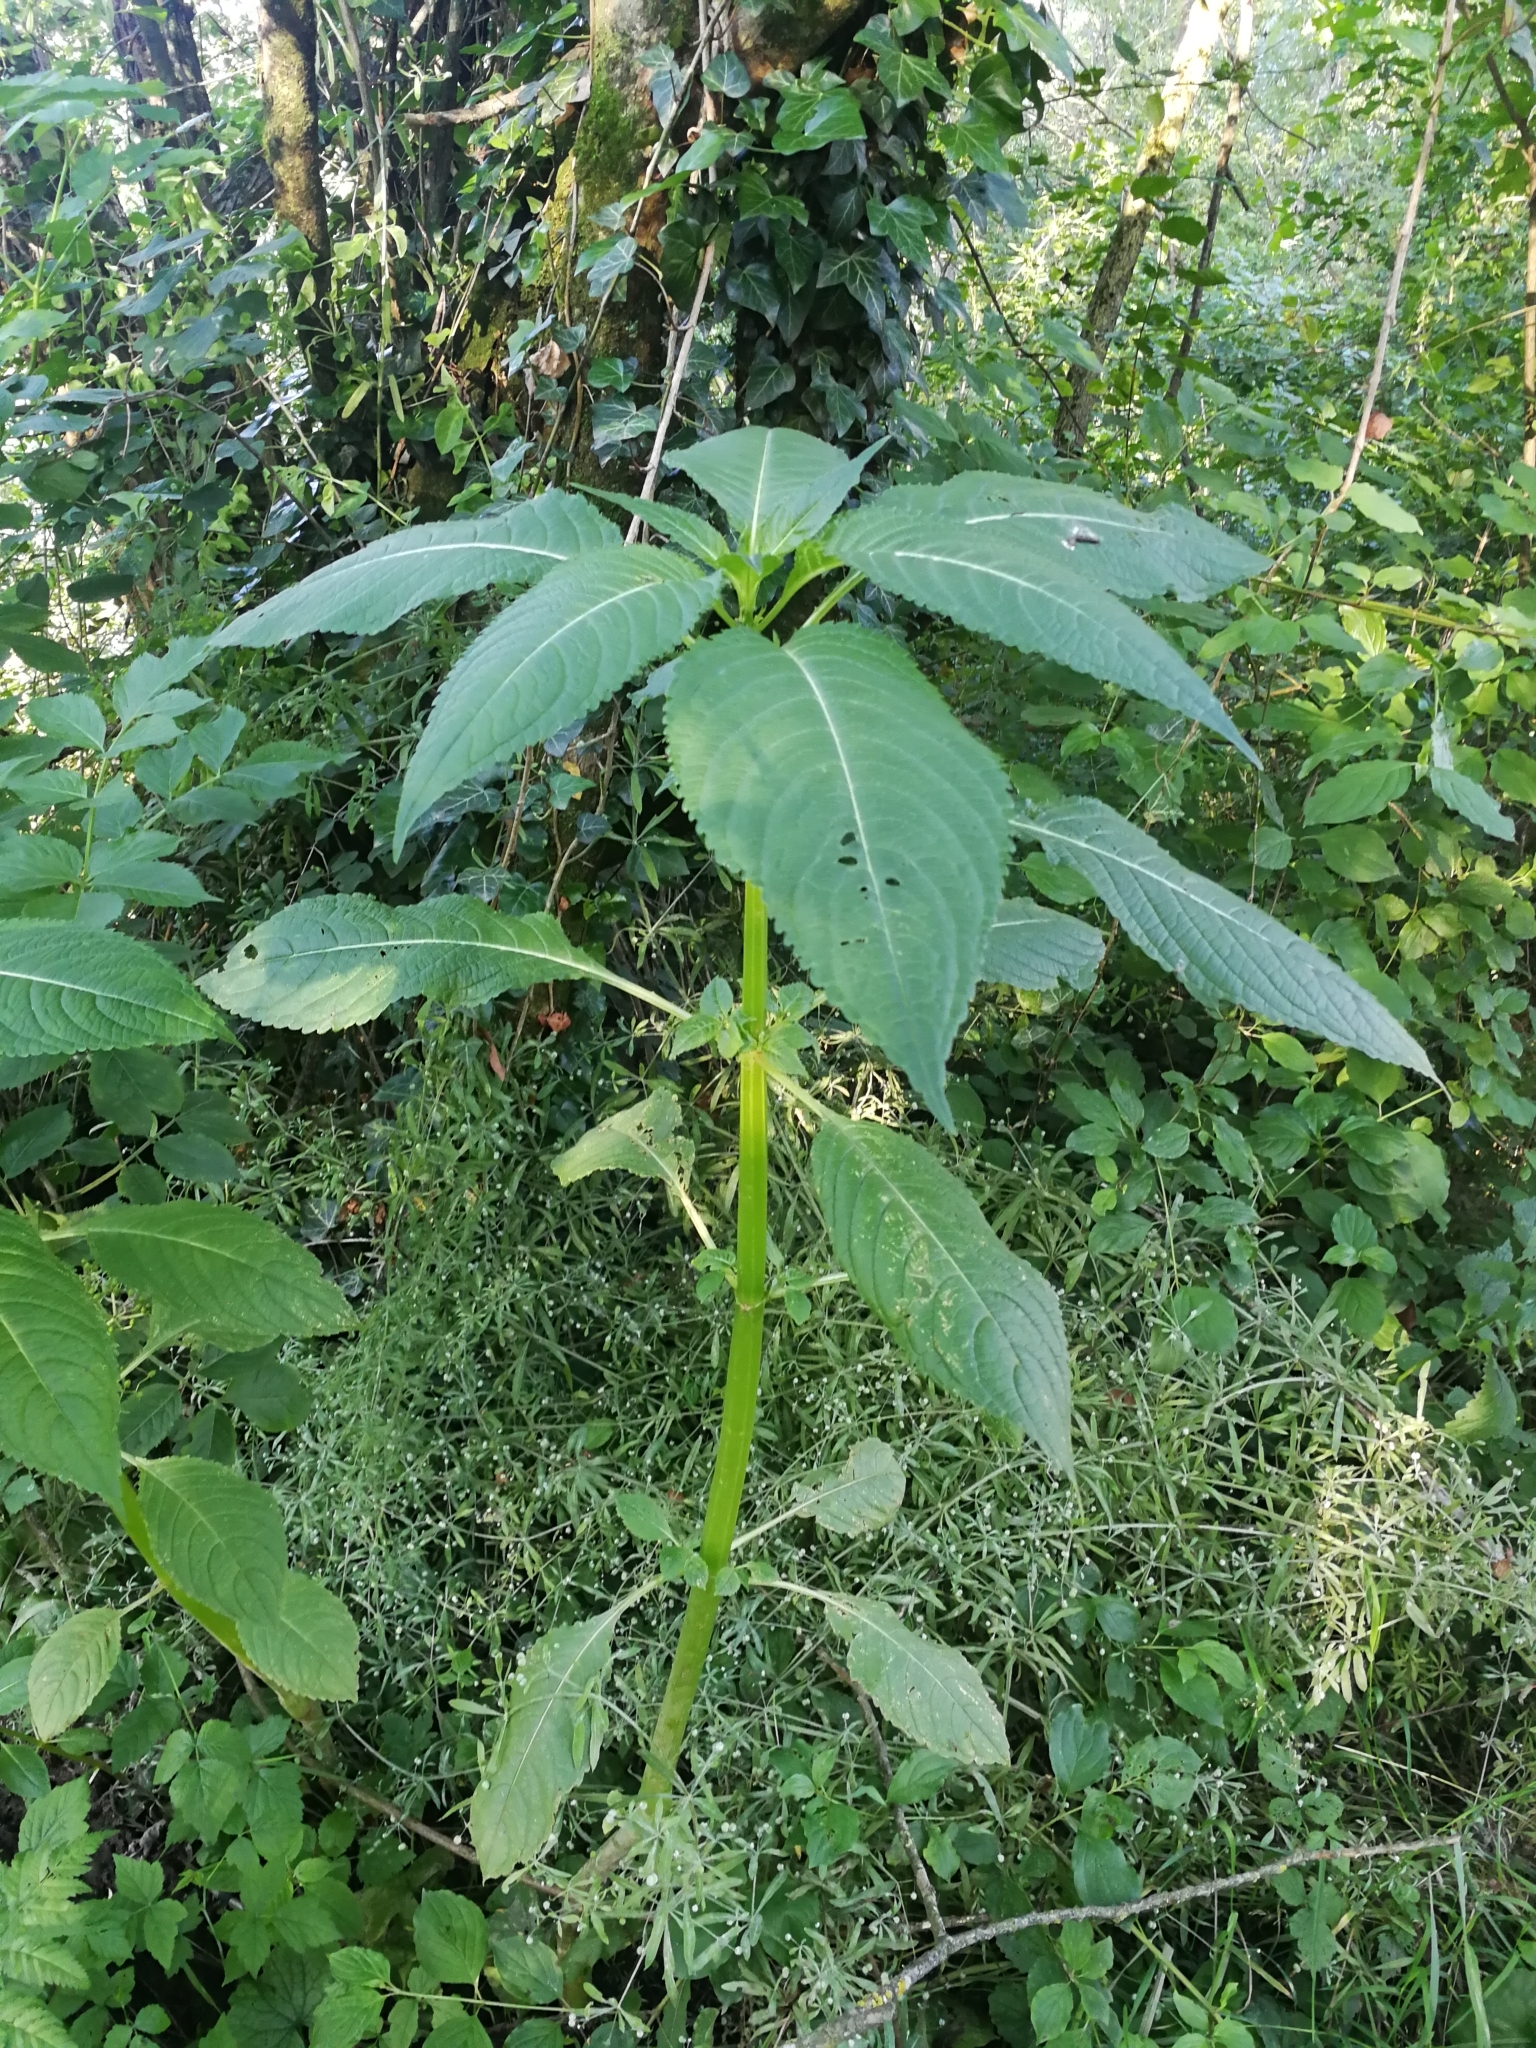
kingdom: Plantae
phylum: Tracheophyta
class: Magnoliopsida
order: Ericales
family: Balsaminaceae
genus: Impatiens
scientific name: Impatiens glandulifera
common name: Himalayan balsam
